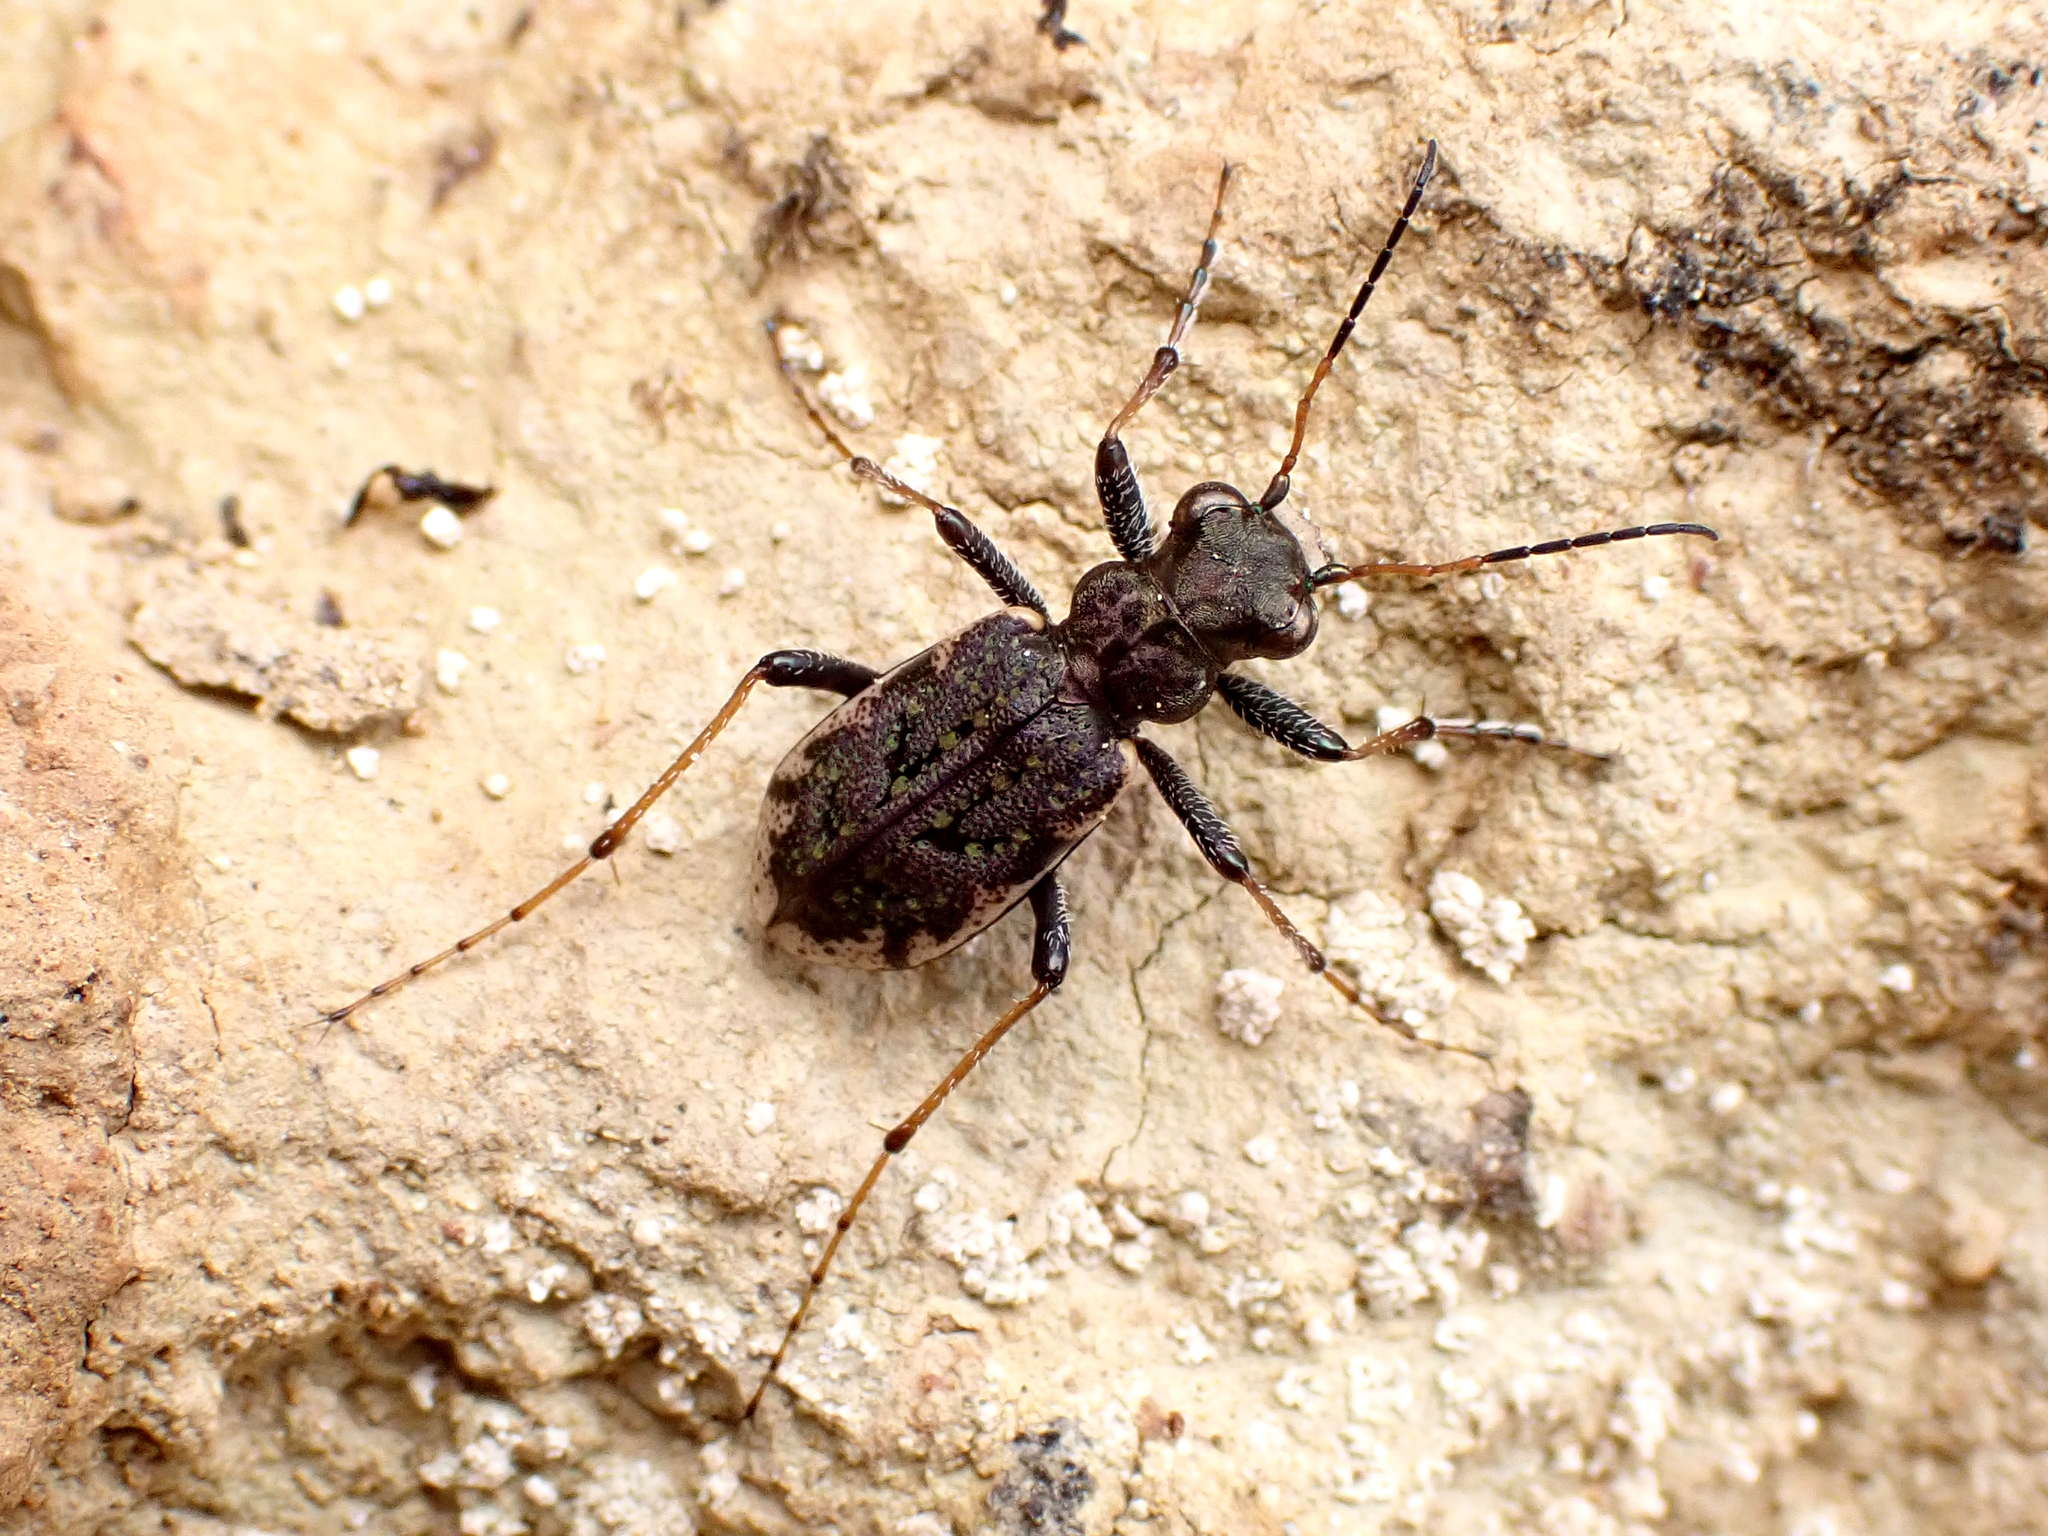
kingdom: Animalia
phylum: Arthropoda
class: Insecta
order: Coleoptera
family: Carabidae
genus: Neocicindela
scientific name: Neocicindela parryi
